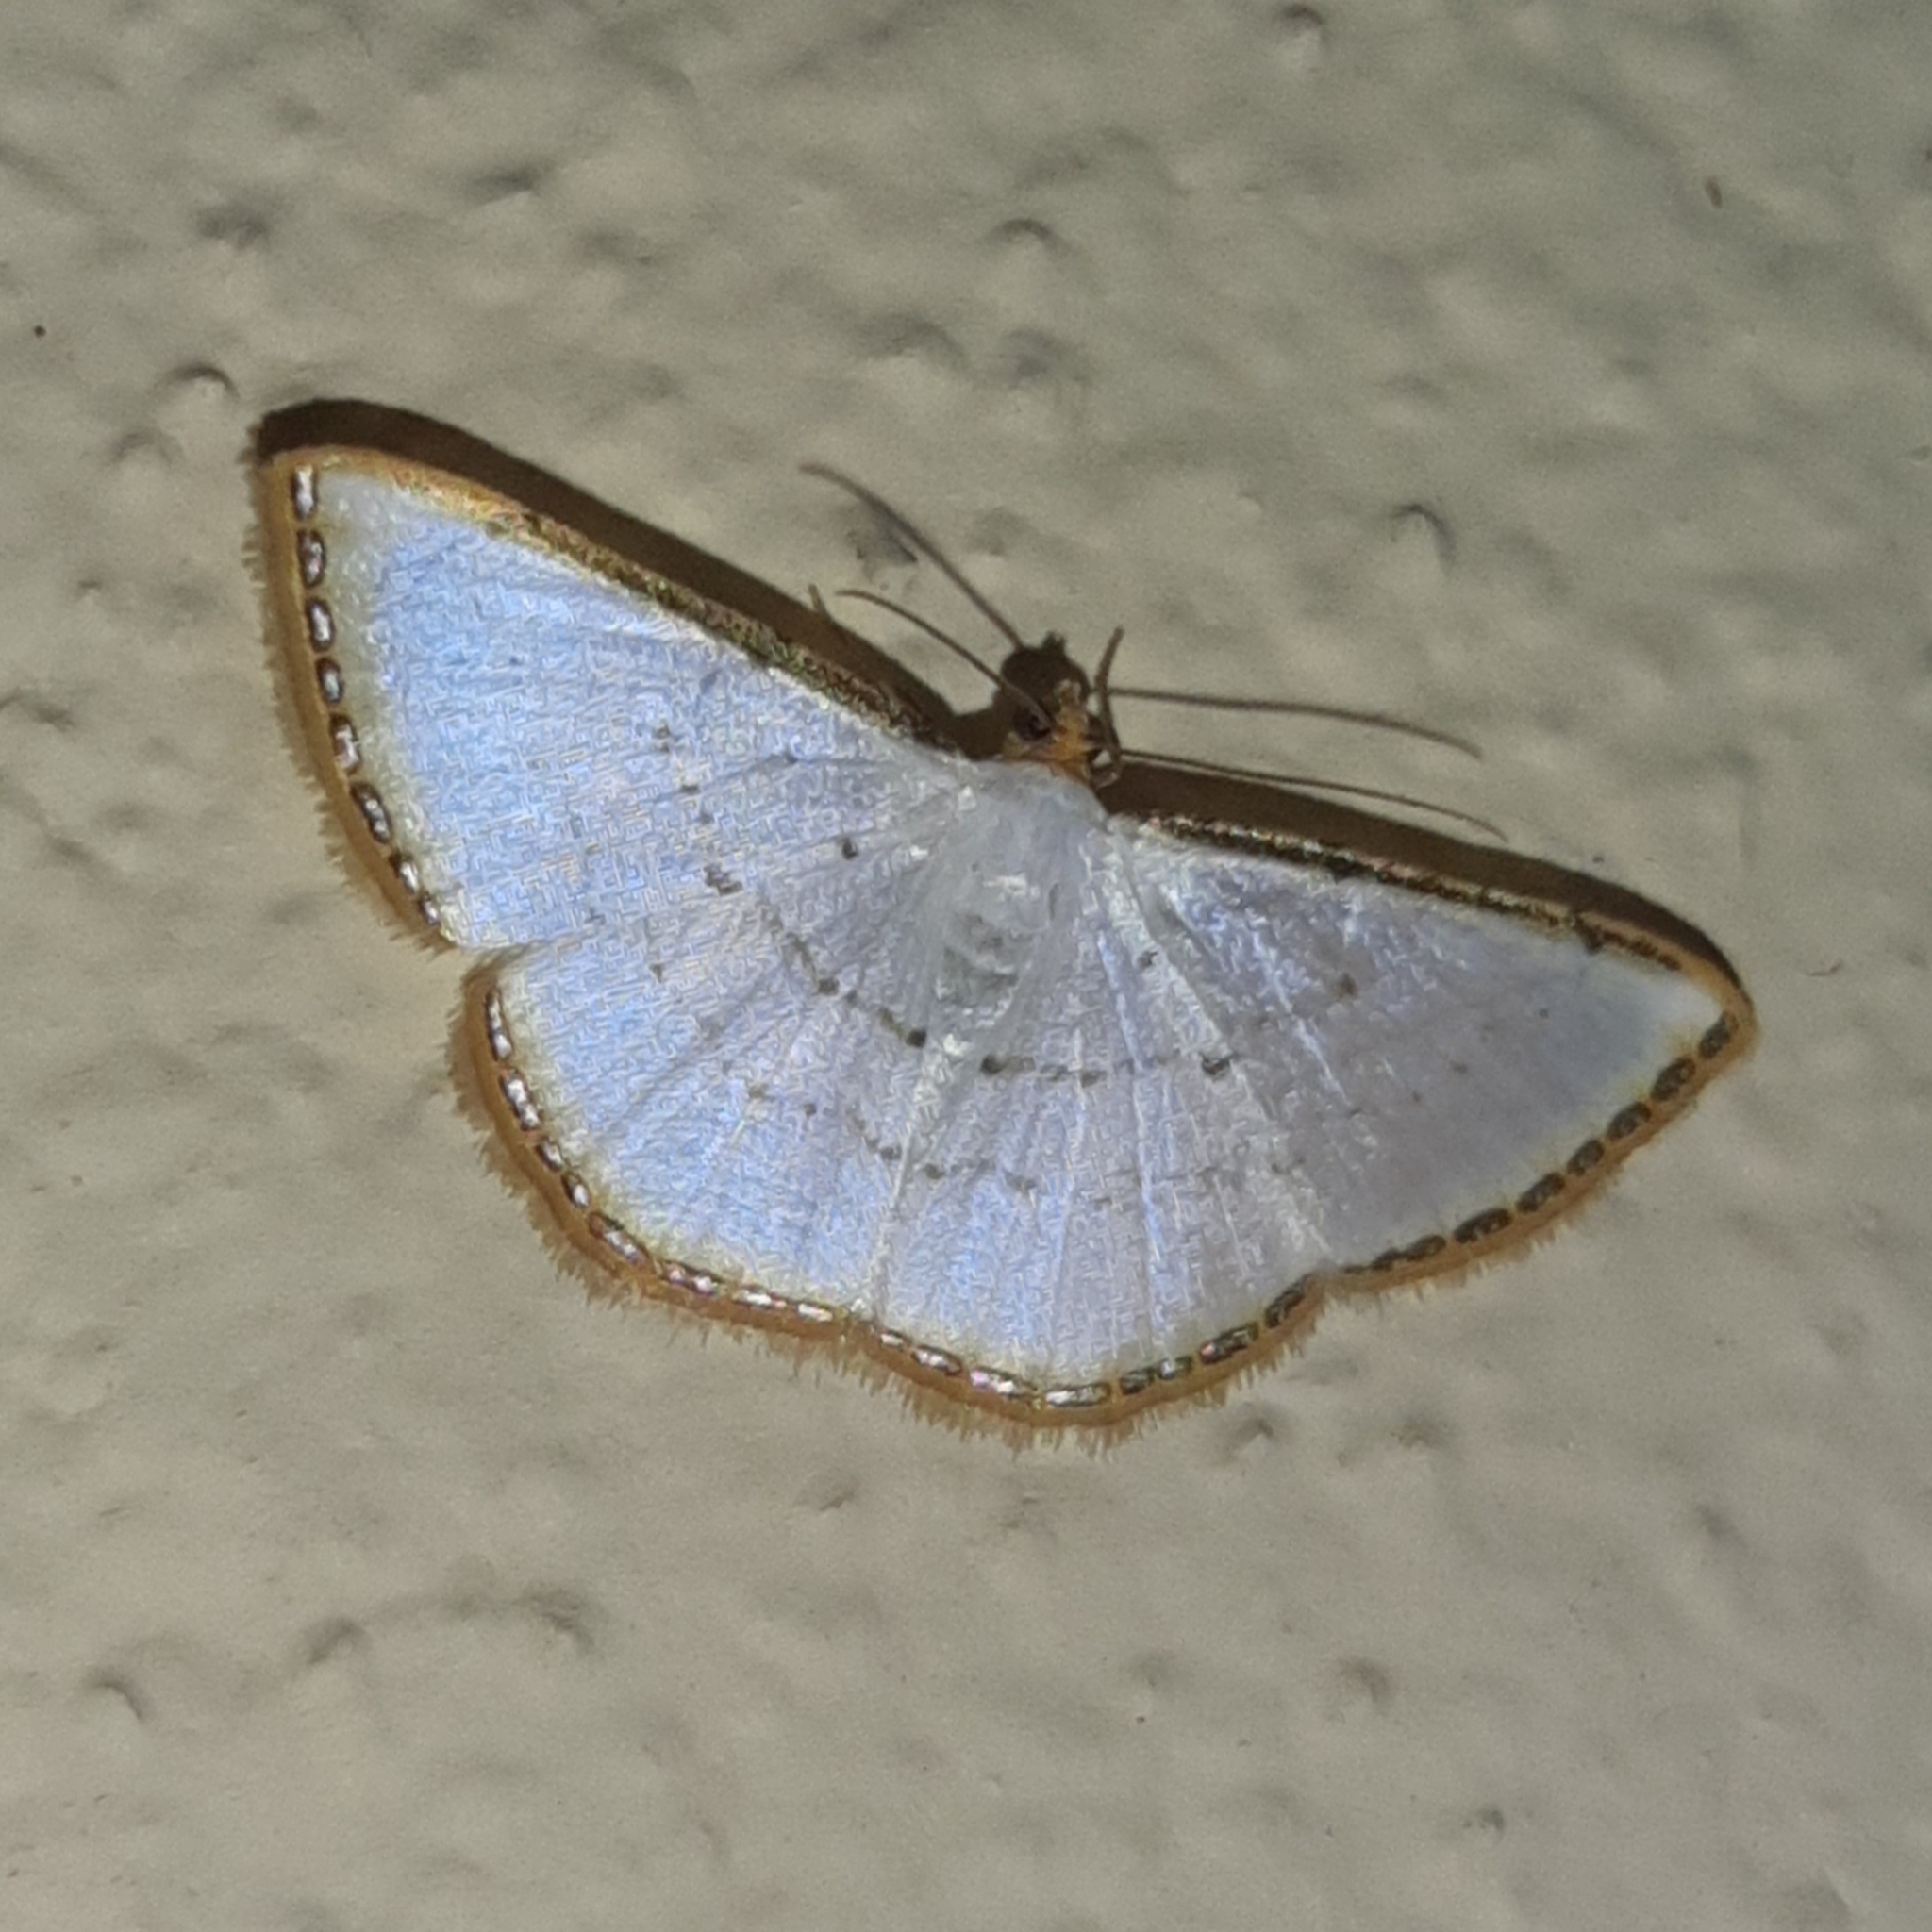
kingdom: Animalia
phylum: Arthropoda
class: Insecta
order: Lepidoptera
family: Geometridae
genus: Leuciris
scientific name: Leuciris fimbriaria
